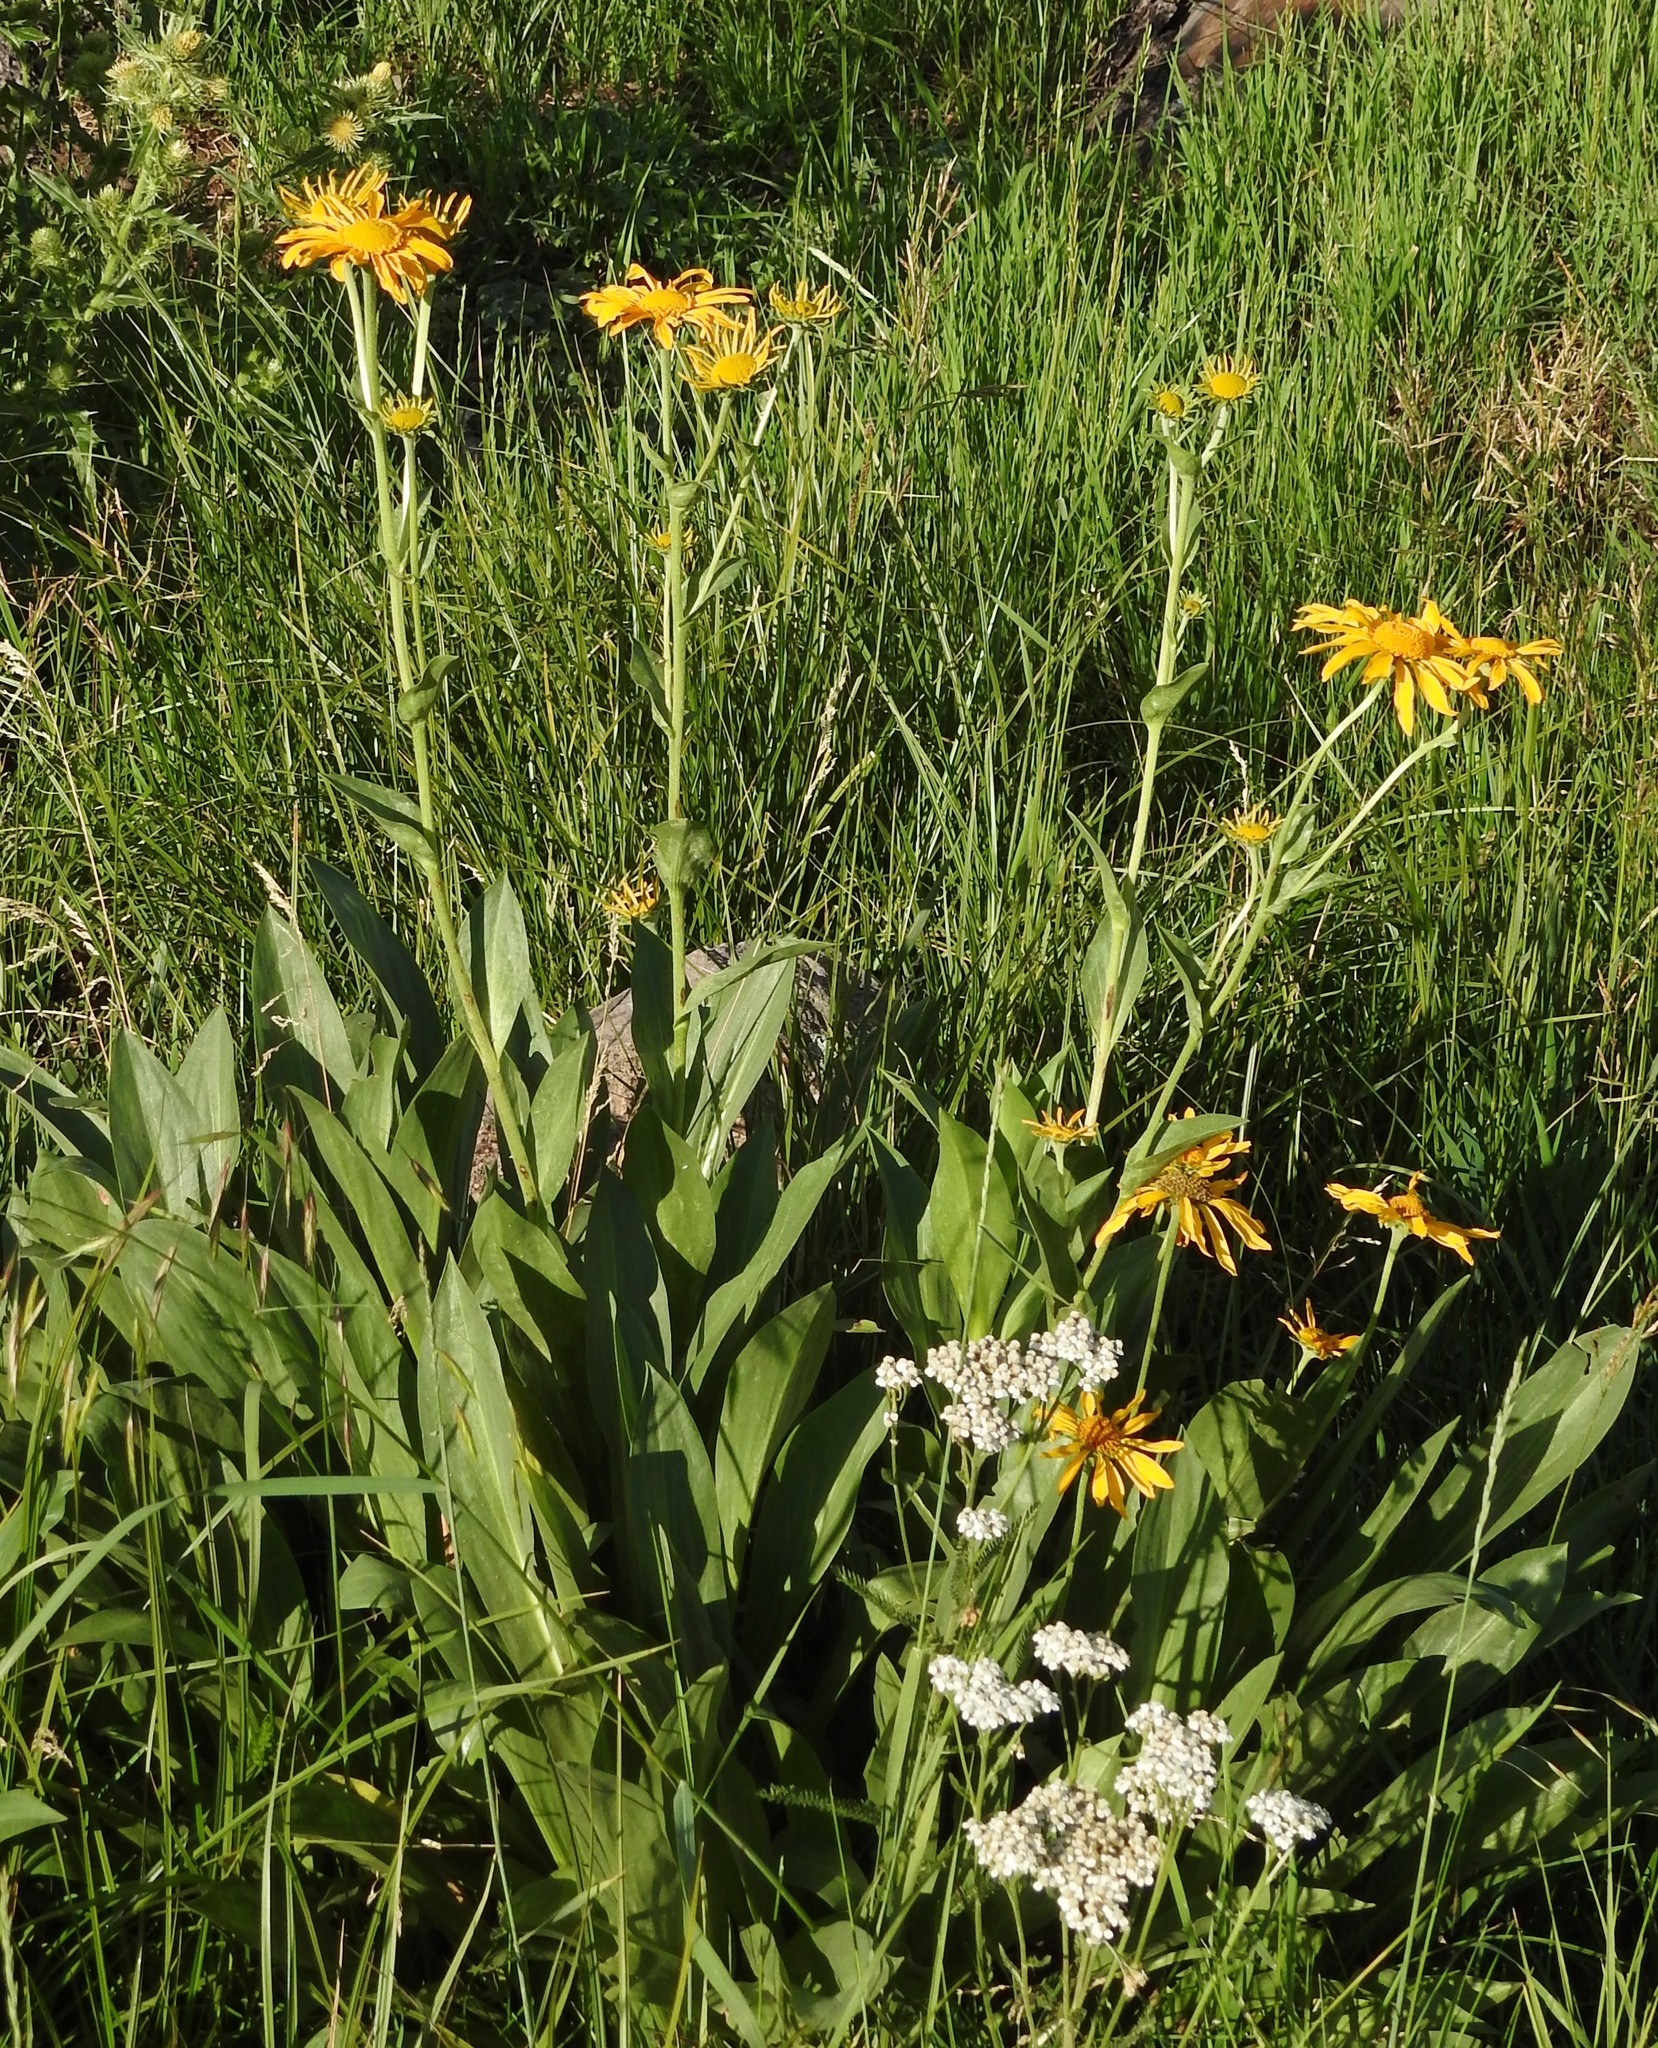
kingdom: Plantae
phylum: Tracheophyta
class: Magnoliopsida
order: Asterales
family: Asteraceae
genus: Hymenoxys
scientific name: Hymenoxys hoopesii
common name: Orange-sneezeweed
